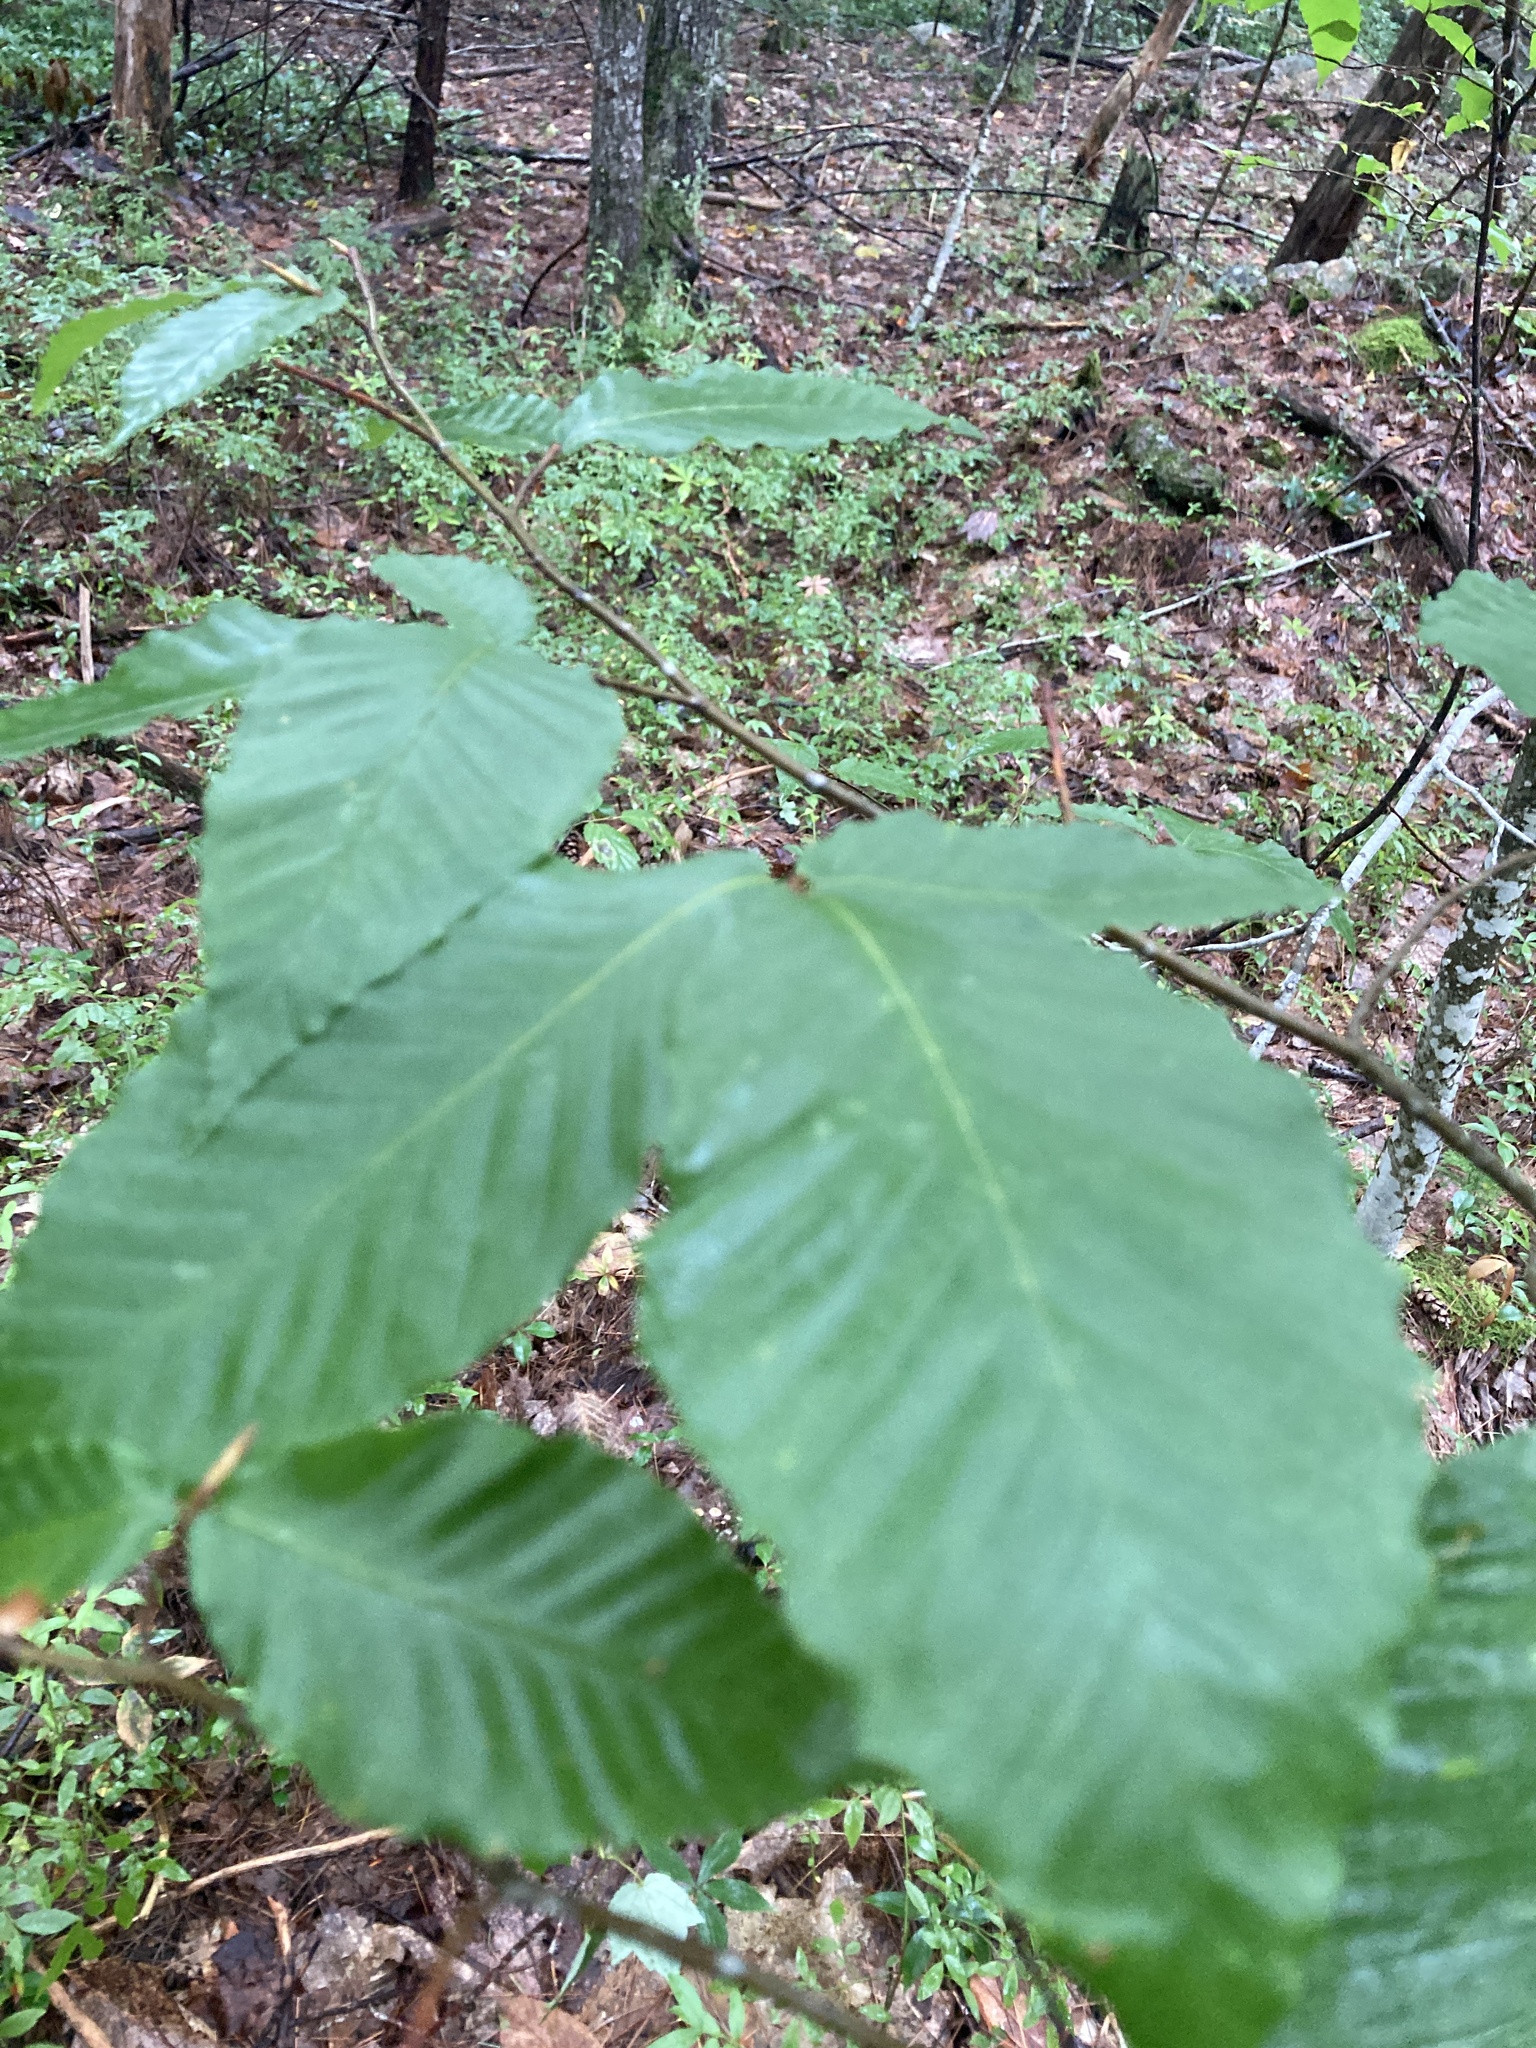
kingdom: Plantae
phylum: Tracheophyta
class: Magnoliopsida
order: Fagales
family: Fagaceae
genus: Fagus
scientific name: Fagus grandifolia
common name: American beech
